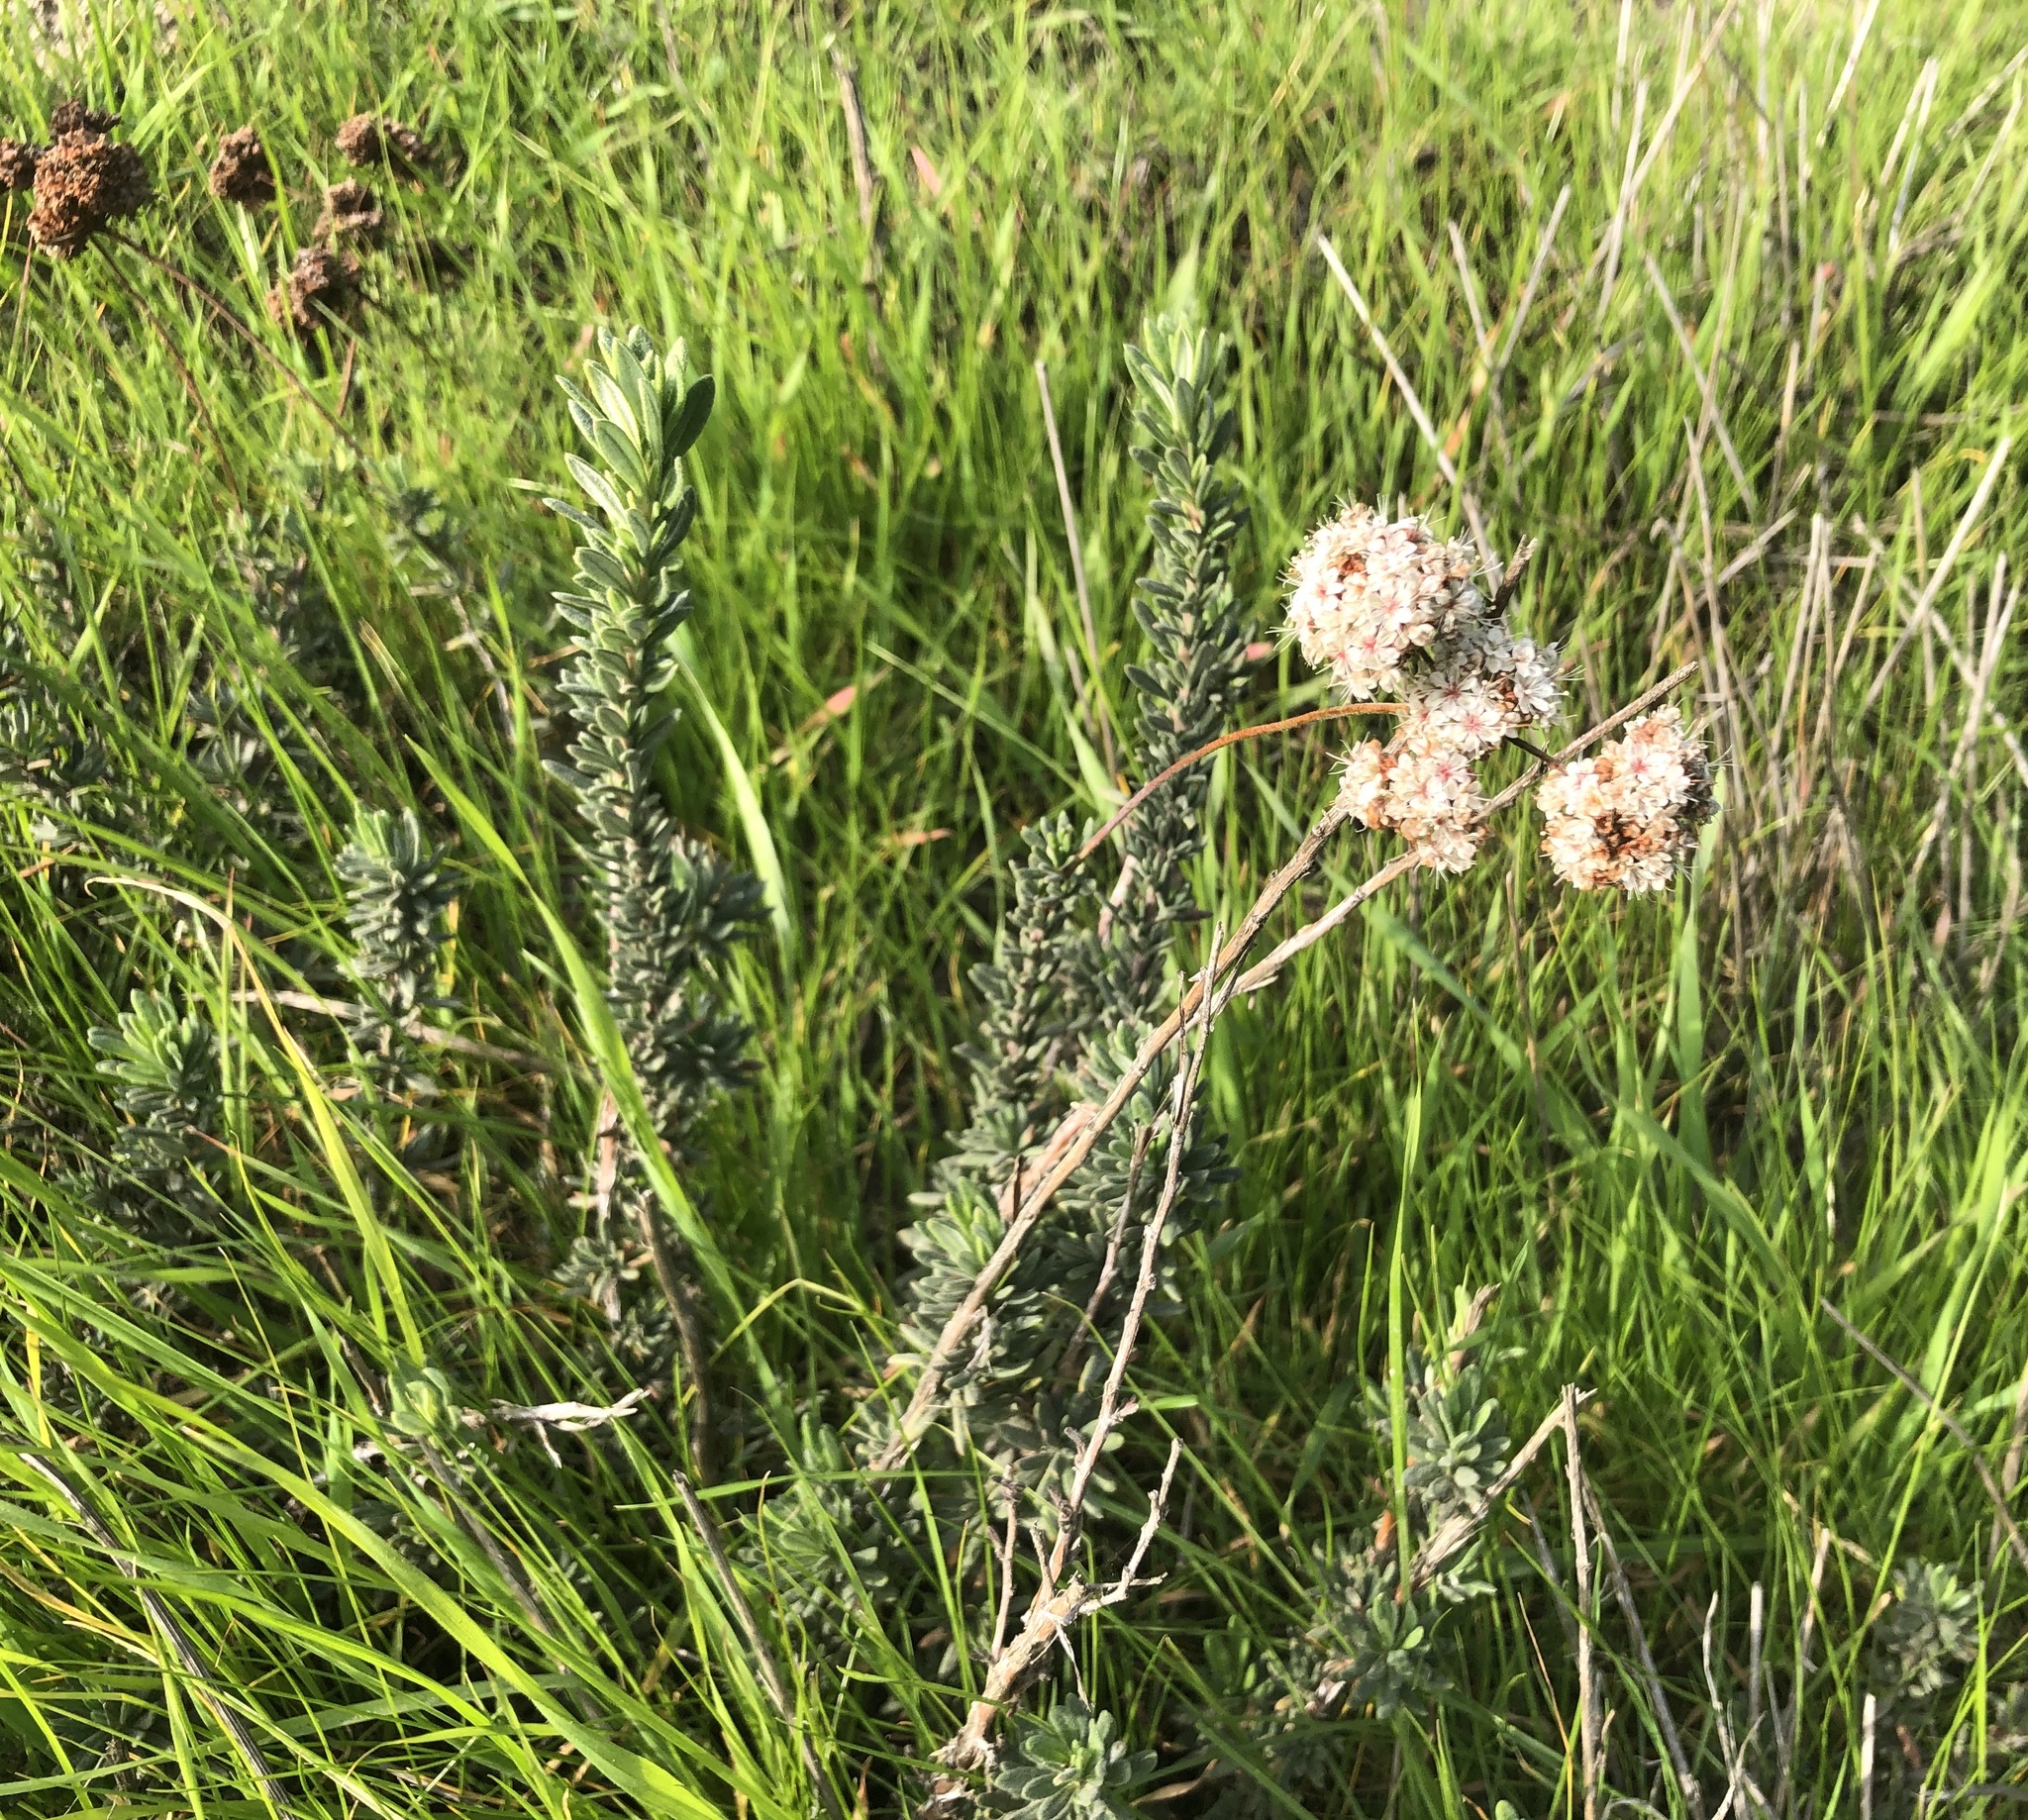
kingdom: Plantae
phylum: Tracheophyta
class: Magnoliopsida
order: Caryophyllales
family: Polygonaceae
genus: Eriogonum
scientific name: Eriogonum fasciculatum
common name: California wild buckwheat
